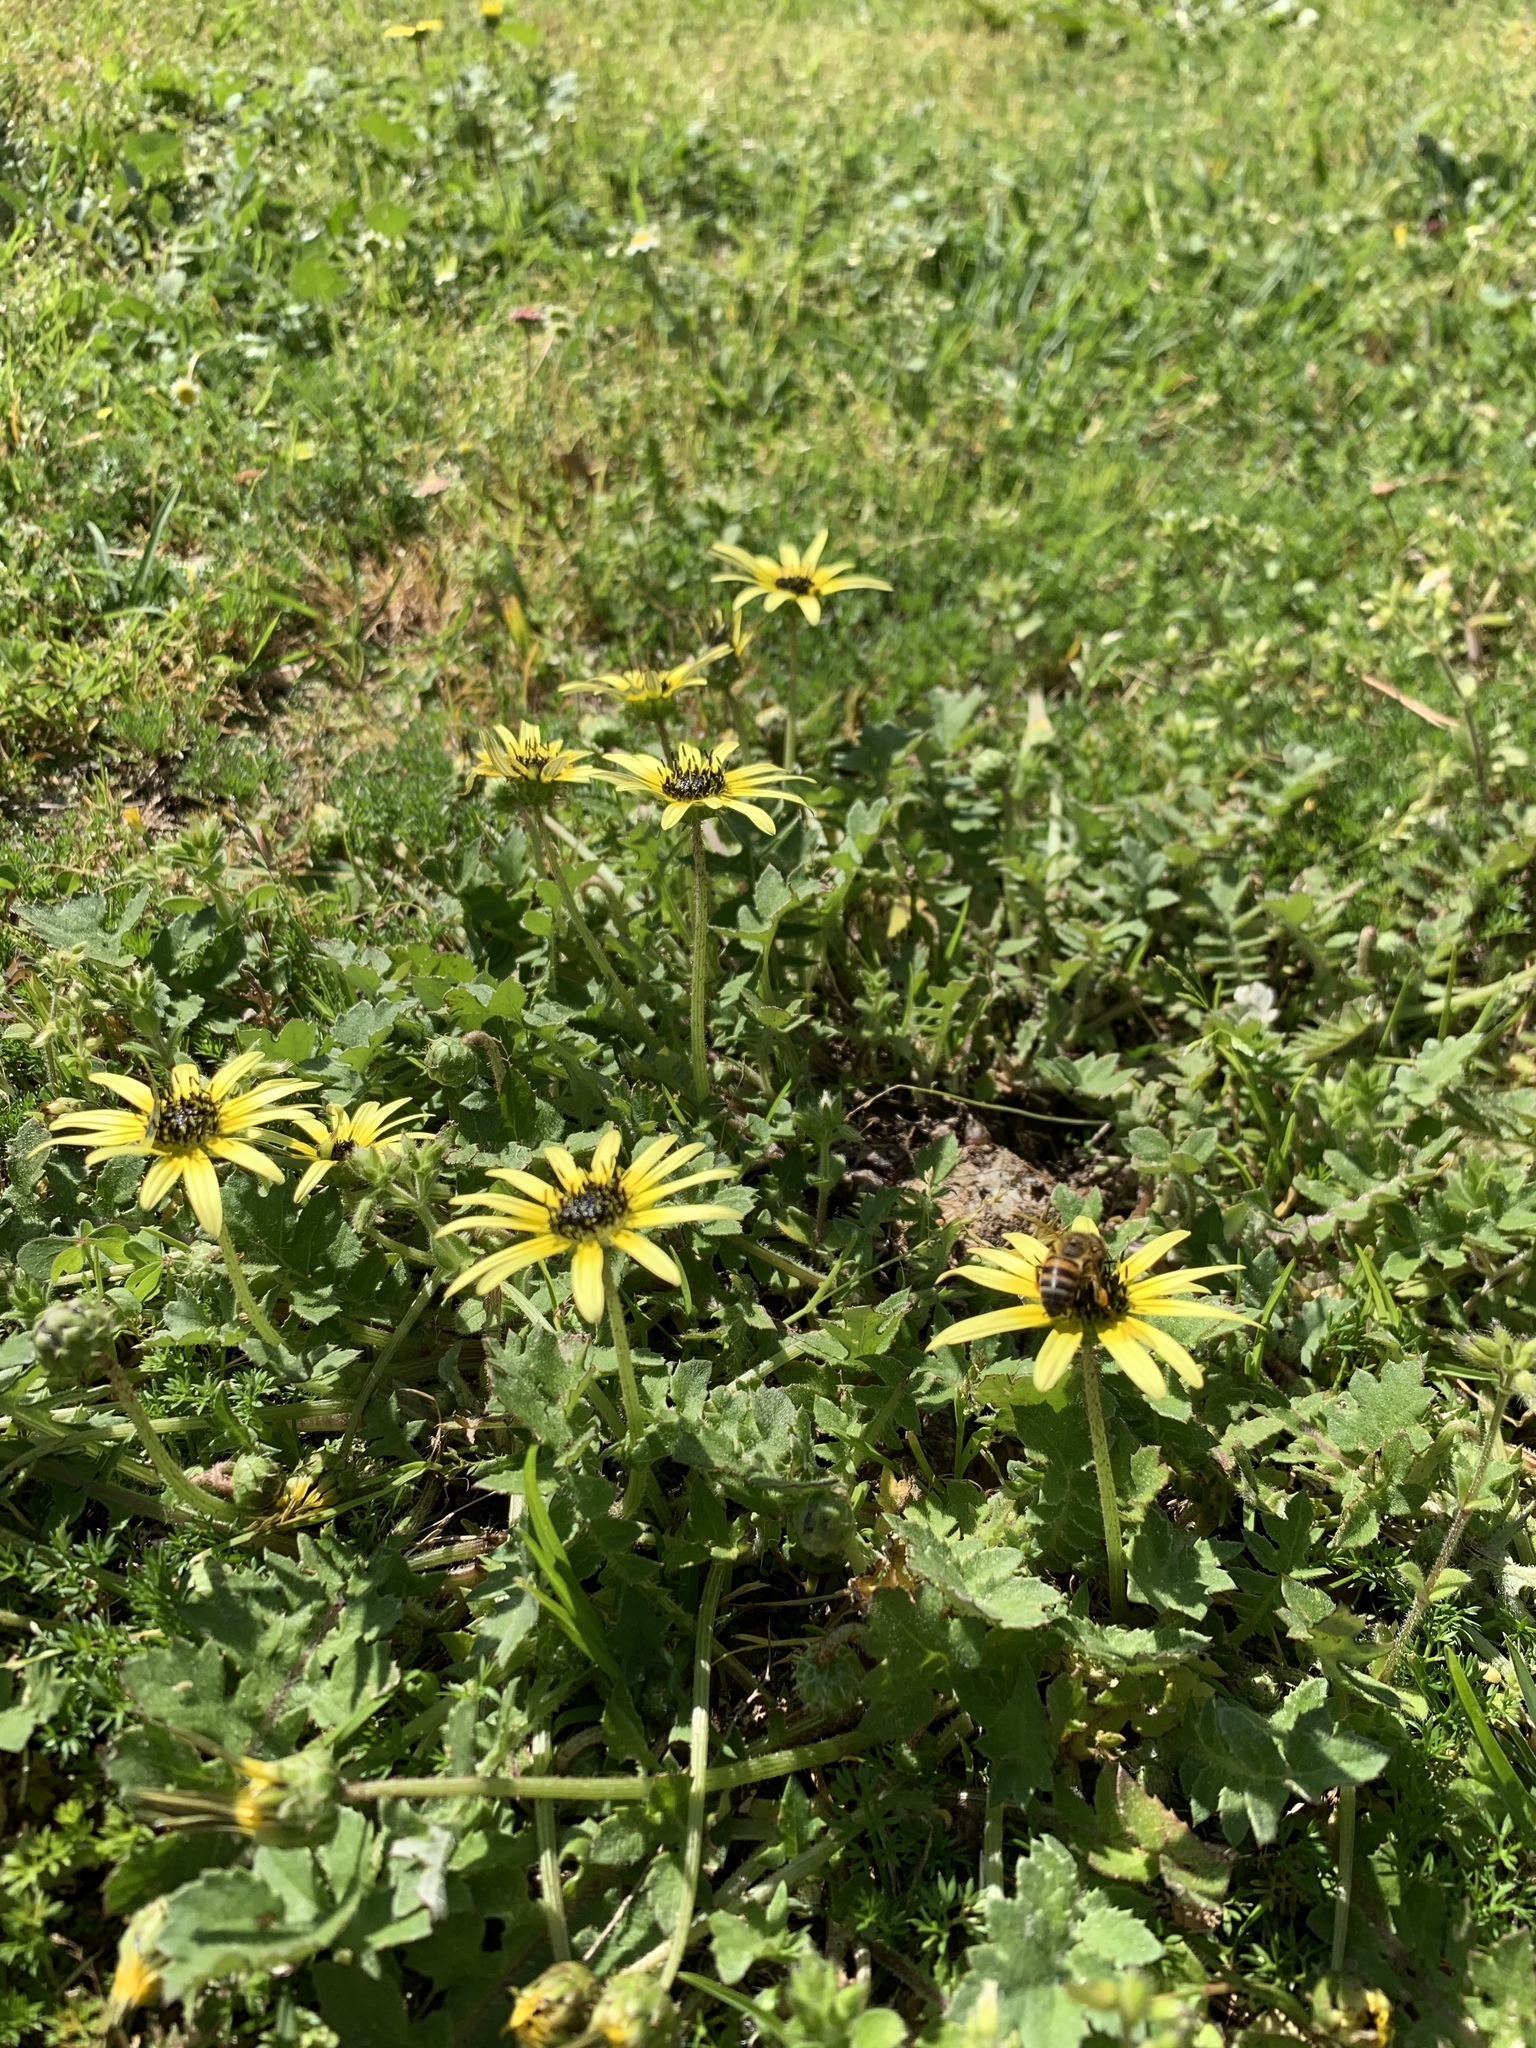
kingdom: Plantae
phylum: Tracheophyta
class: Magnoliopsida
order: Asterales
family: Asteraceae
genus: Arctotheca
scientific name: Arctotheca calendula
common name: Capeweed
